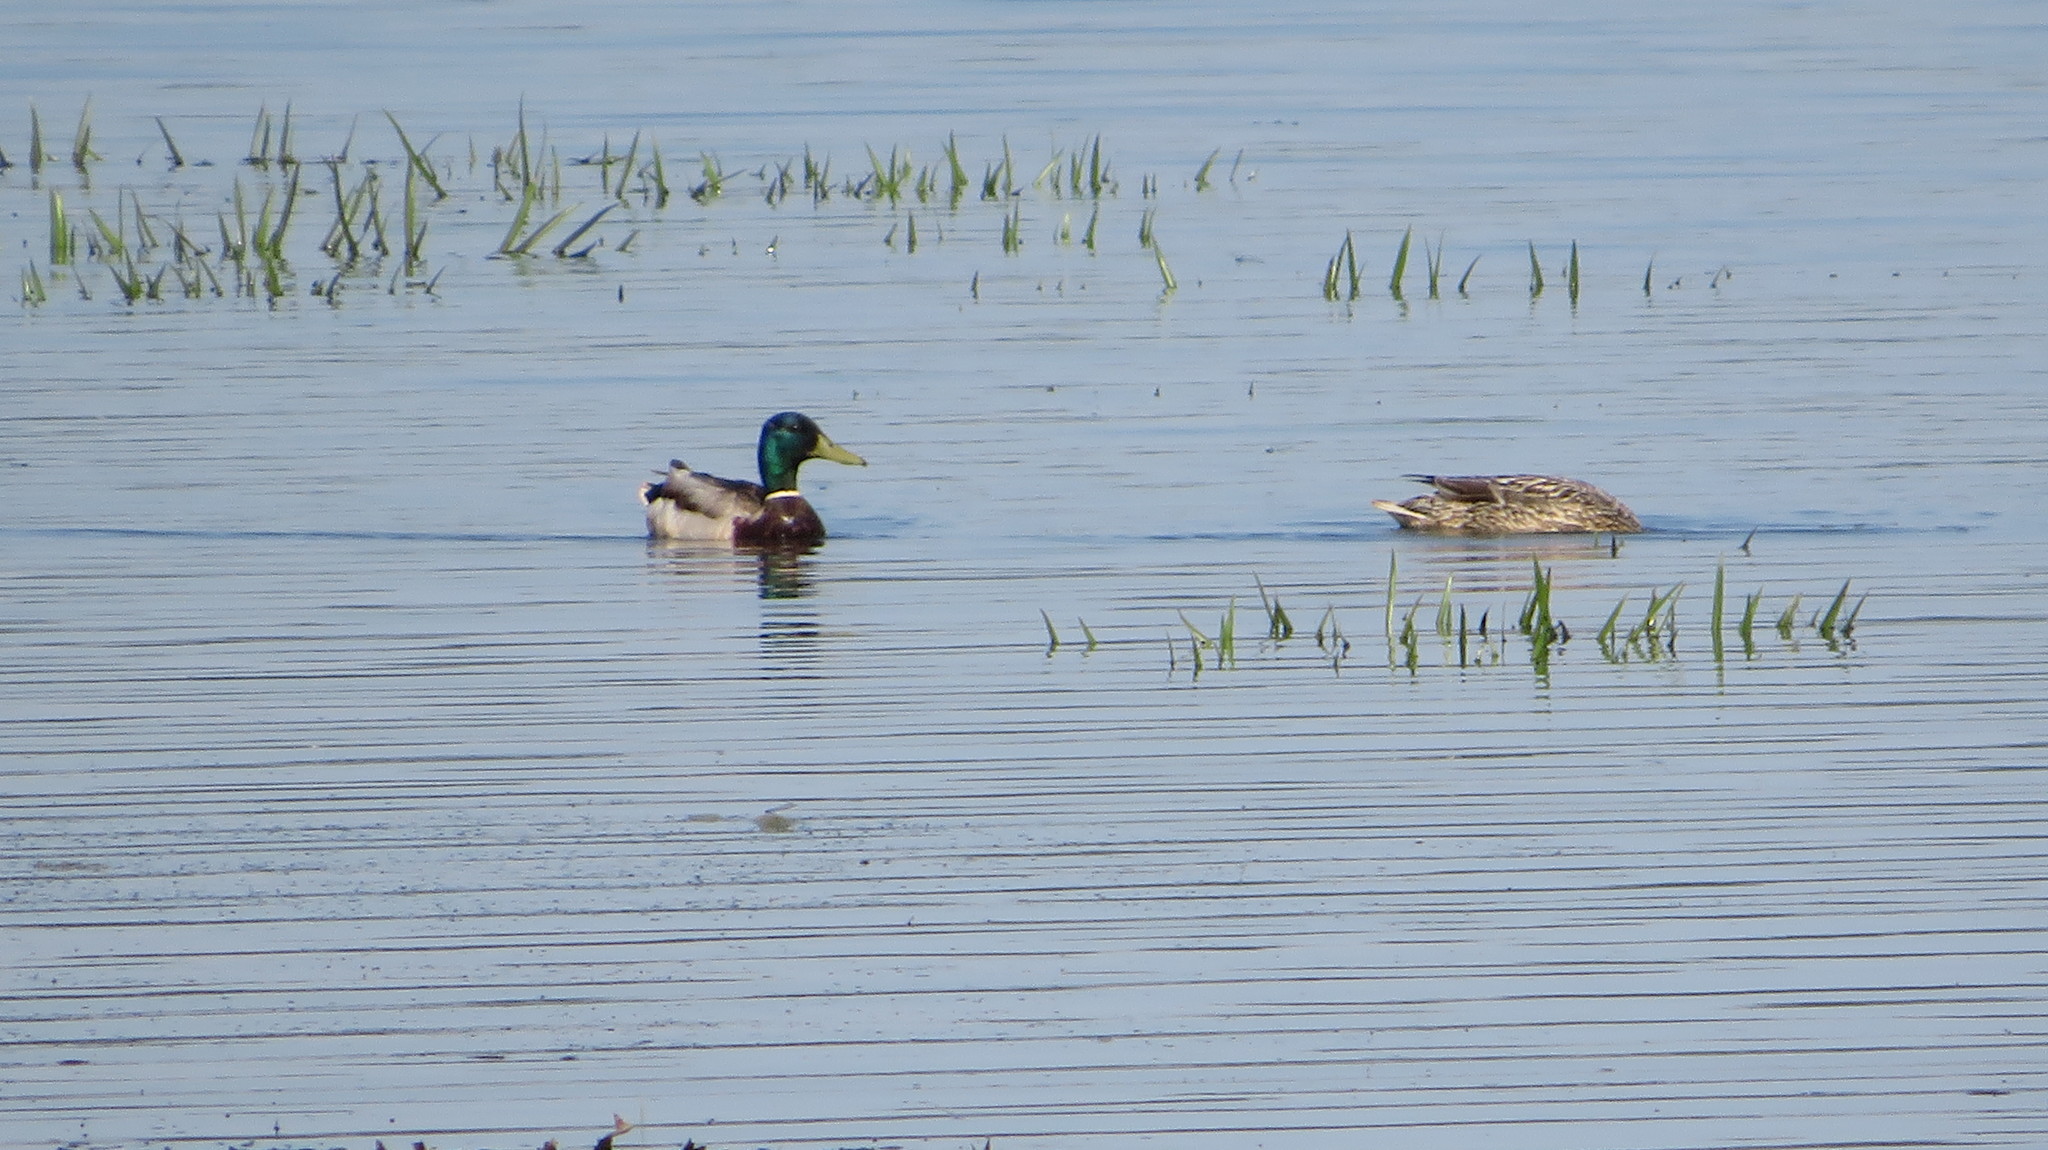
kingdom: Animalia
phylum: Chordata
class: Aves
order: Anseriformes
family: Anatidae
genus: Anas
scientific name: Anas platyrhynchos
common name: Mallard
